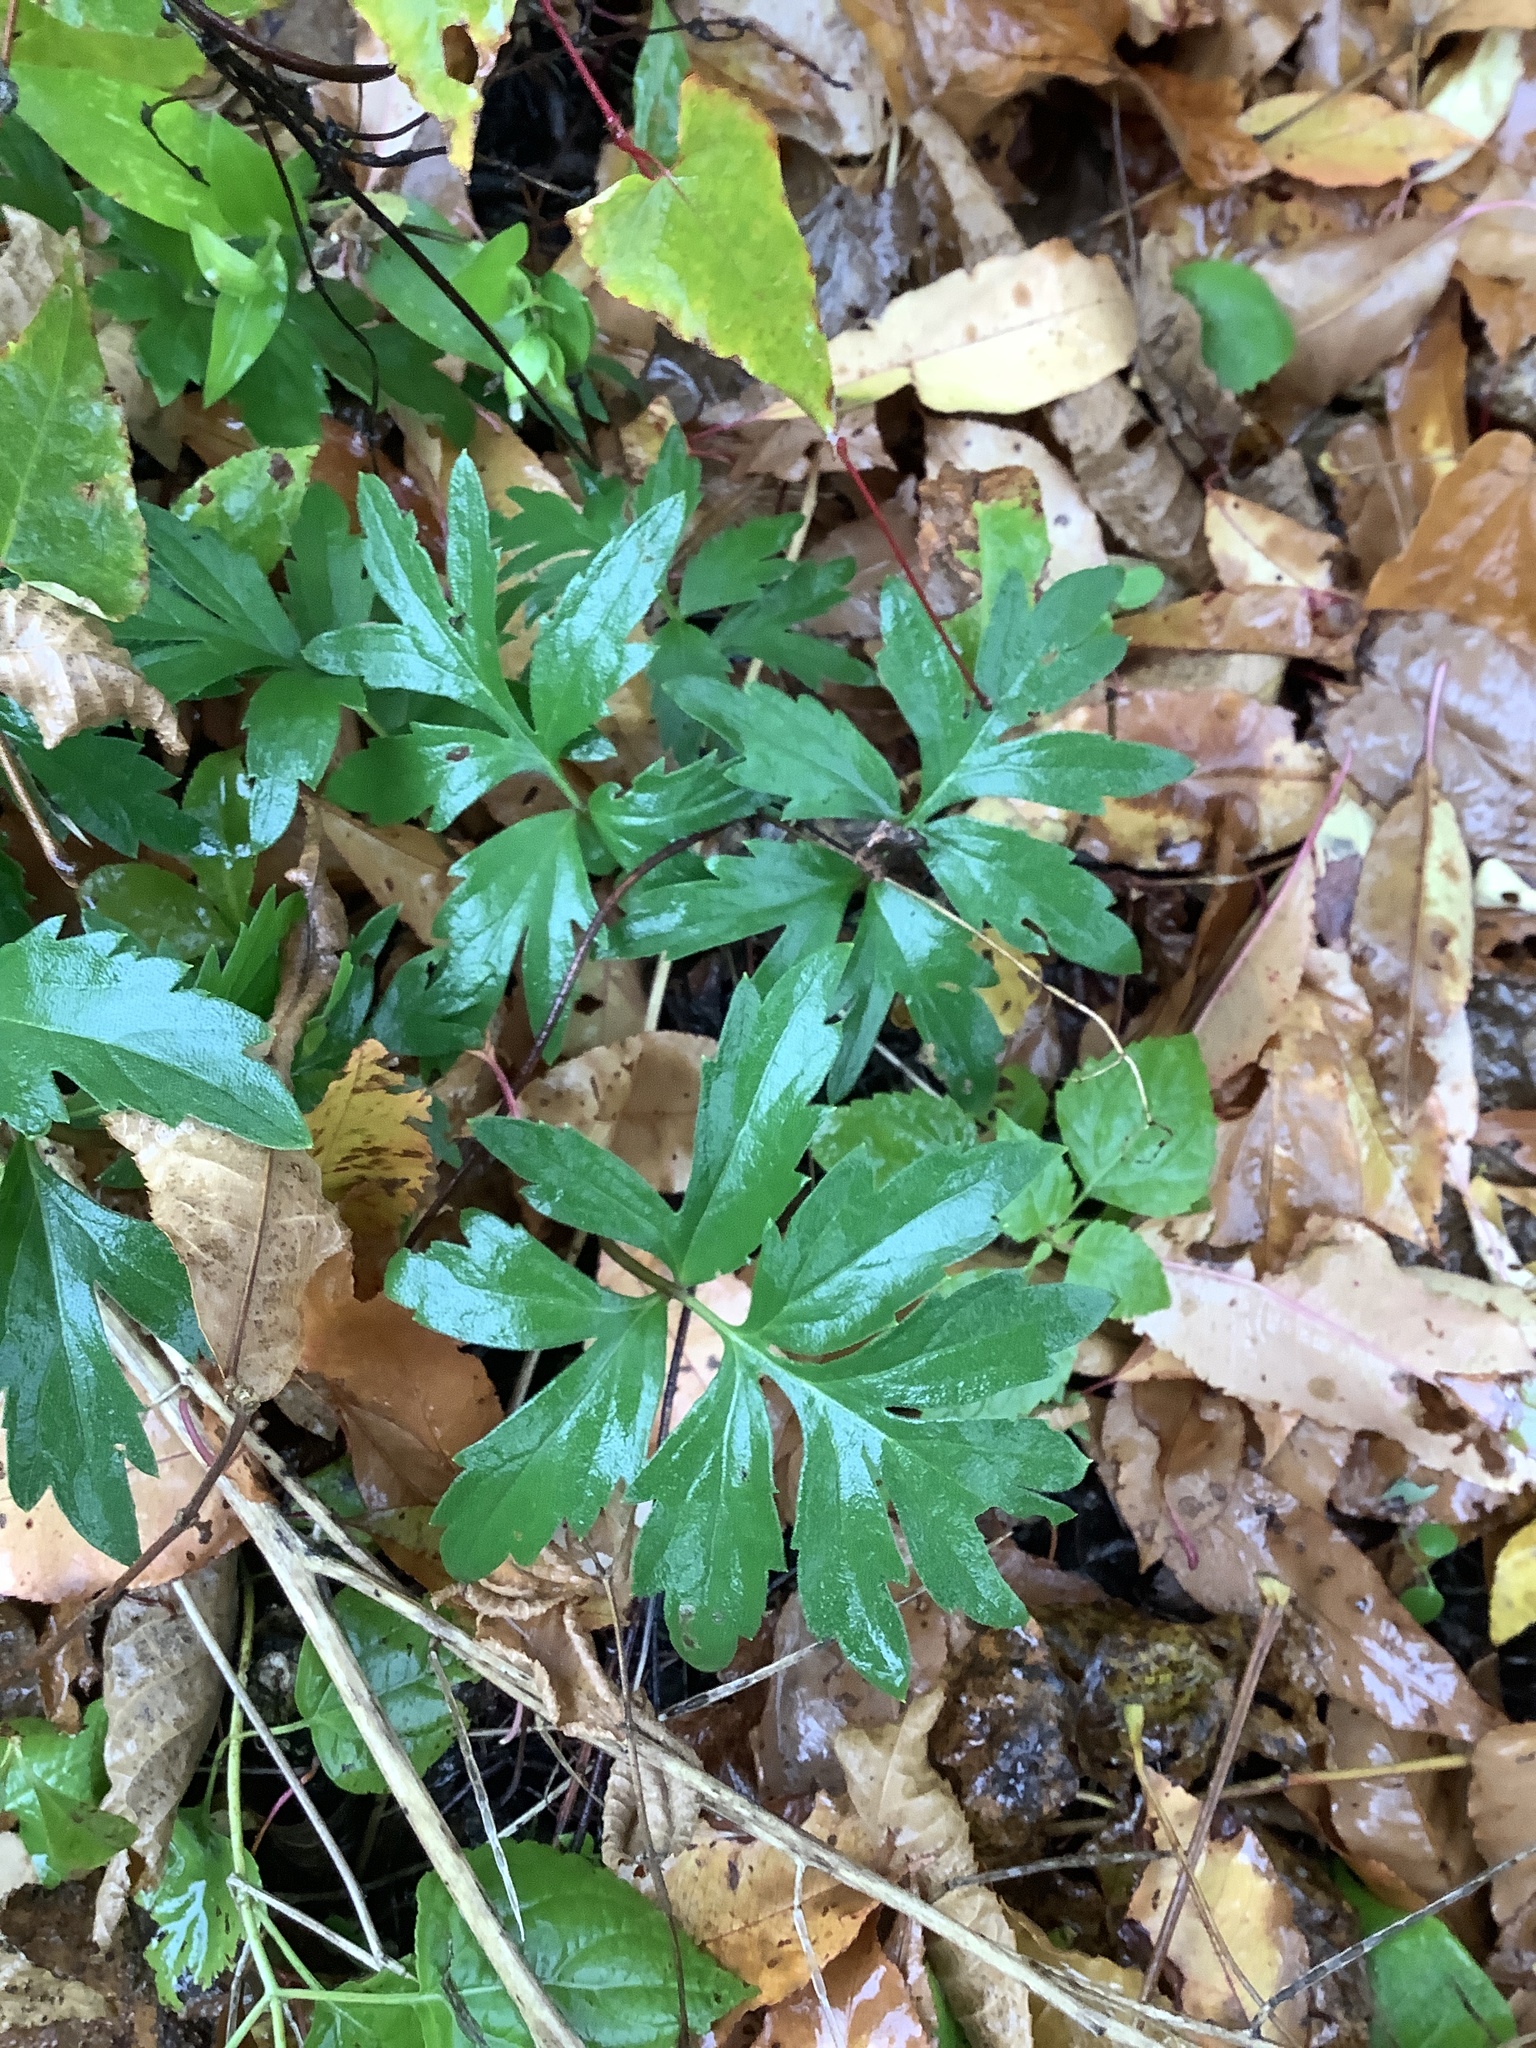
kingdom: Plantae
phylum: Tracheophyta
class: Magnoliopsida
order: Boraginales
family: Hydrophyllaceae
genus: Hydrophyllum
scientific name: Hydrophyllum virginianum
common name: Virginia waterleaf
